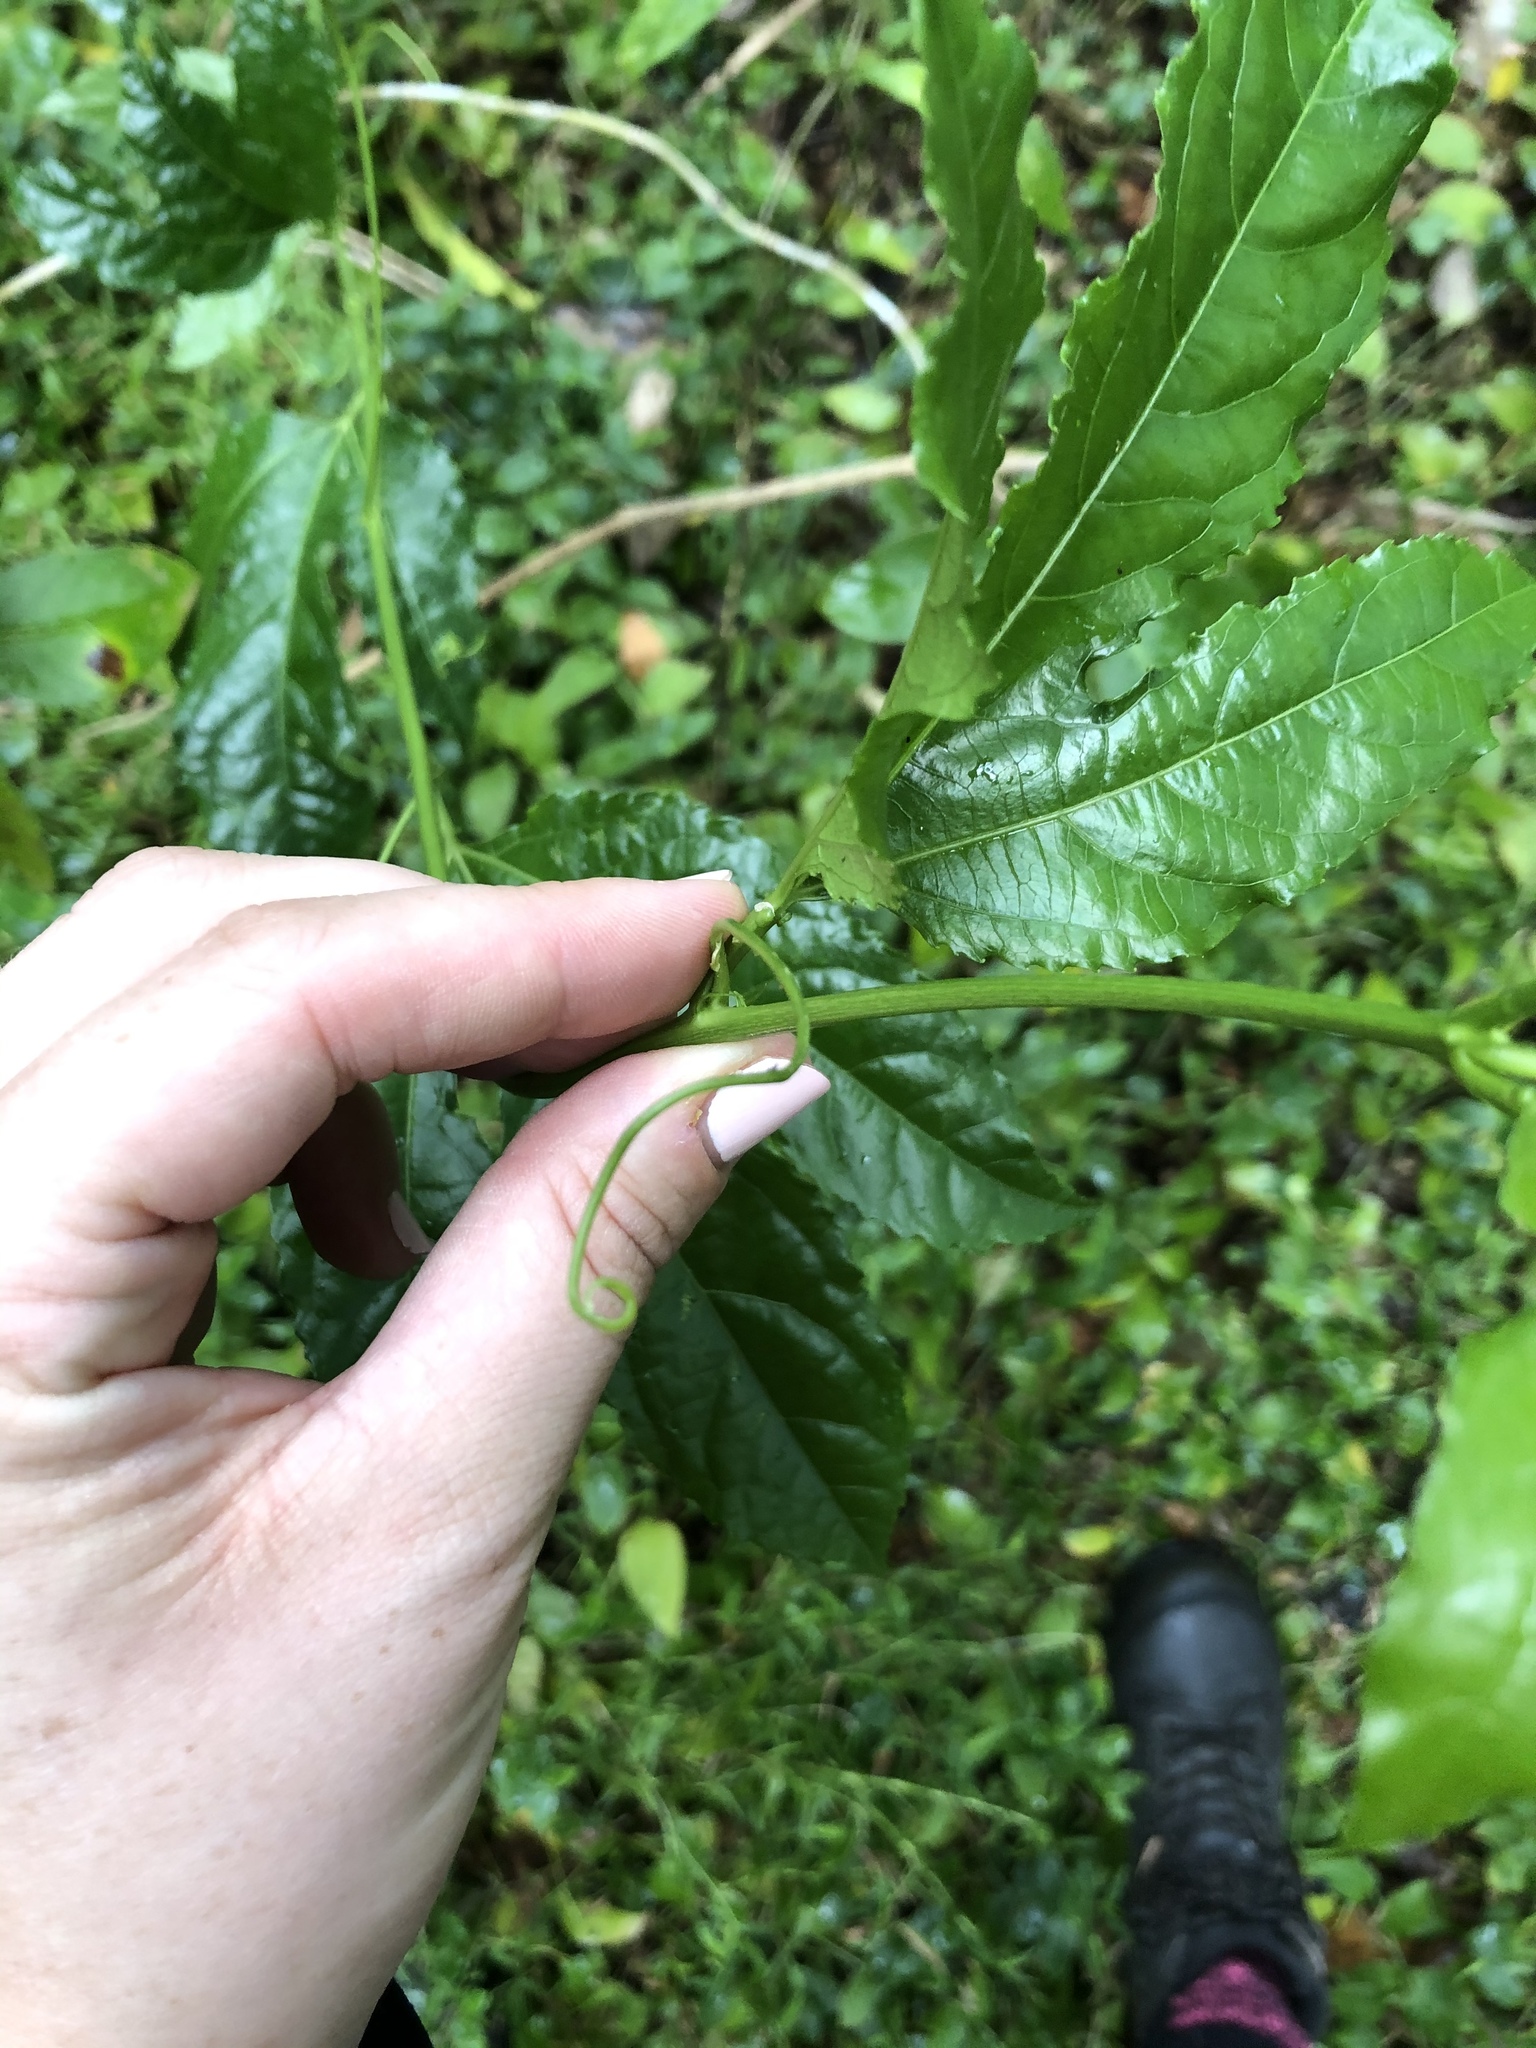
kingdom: Plantae
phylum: Tracheophyta
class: Magnoliopsida
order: Malpighiales
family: Passifloraceae
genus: Passiflora
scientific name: Passiflora edulis
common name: Purple granadilla
